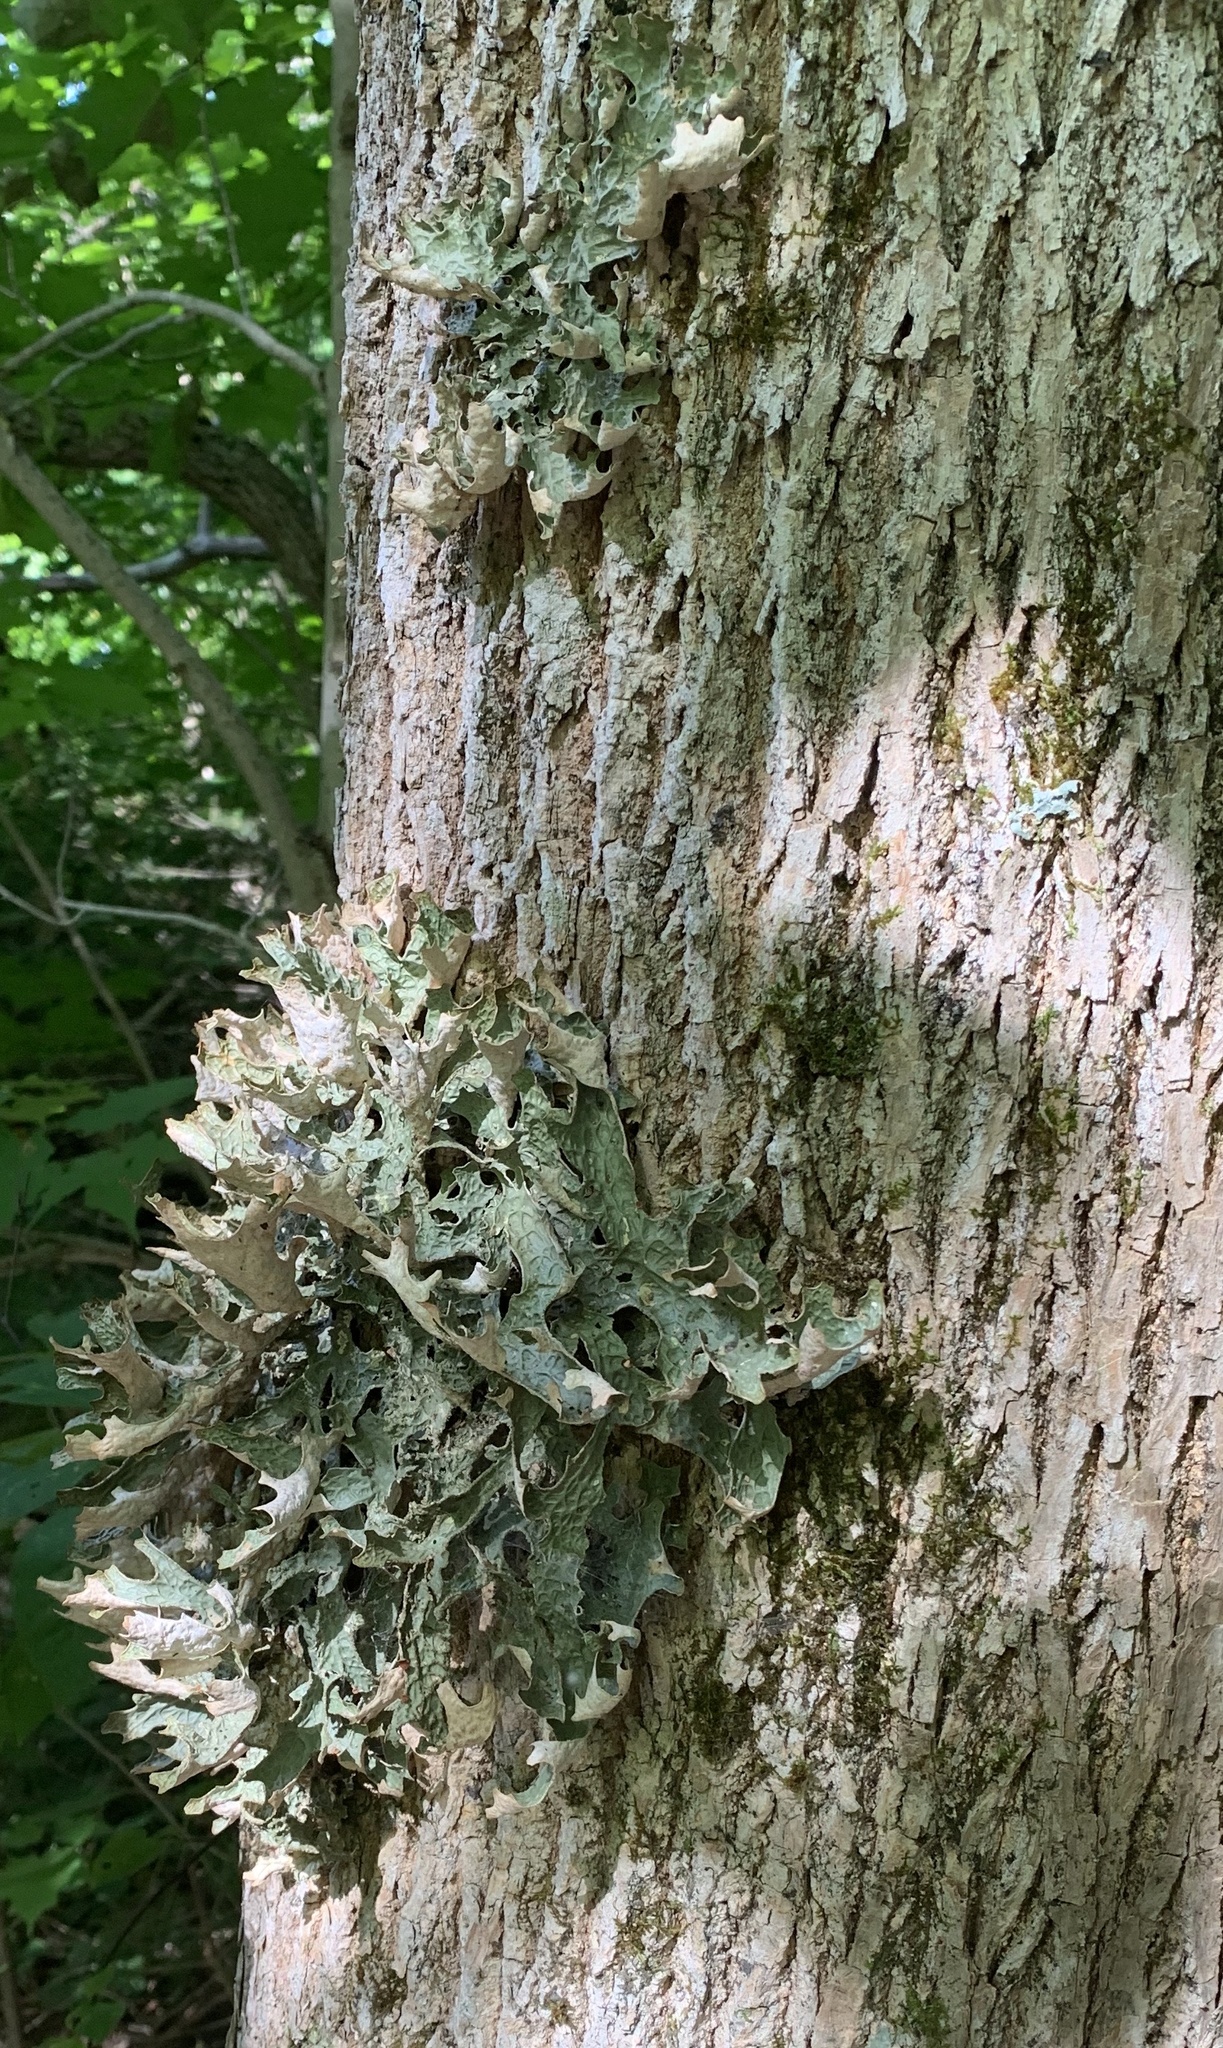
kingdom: Fungi
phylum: Ascomycota
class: Lecanoromycetes
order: Peltigerales
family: Lobariaceae
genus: Lobaria
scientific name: Lobaria pulmonaria
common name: Lungwort
